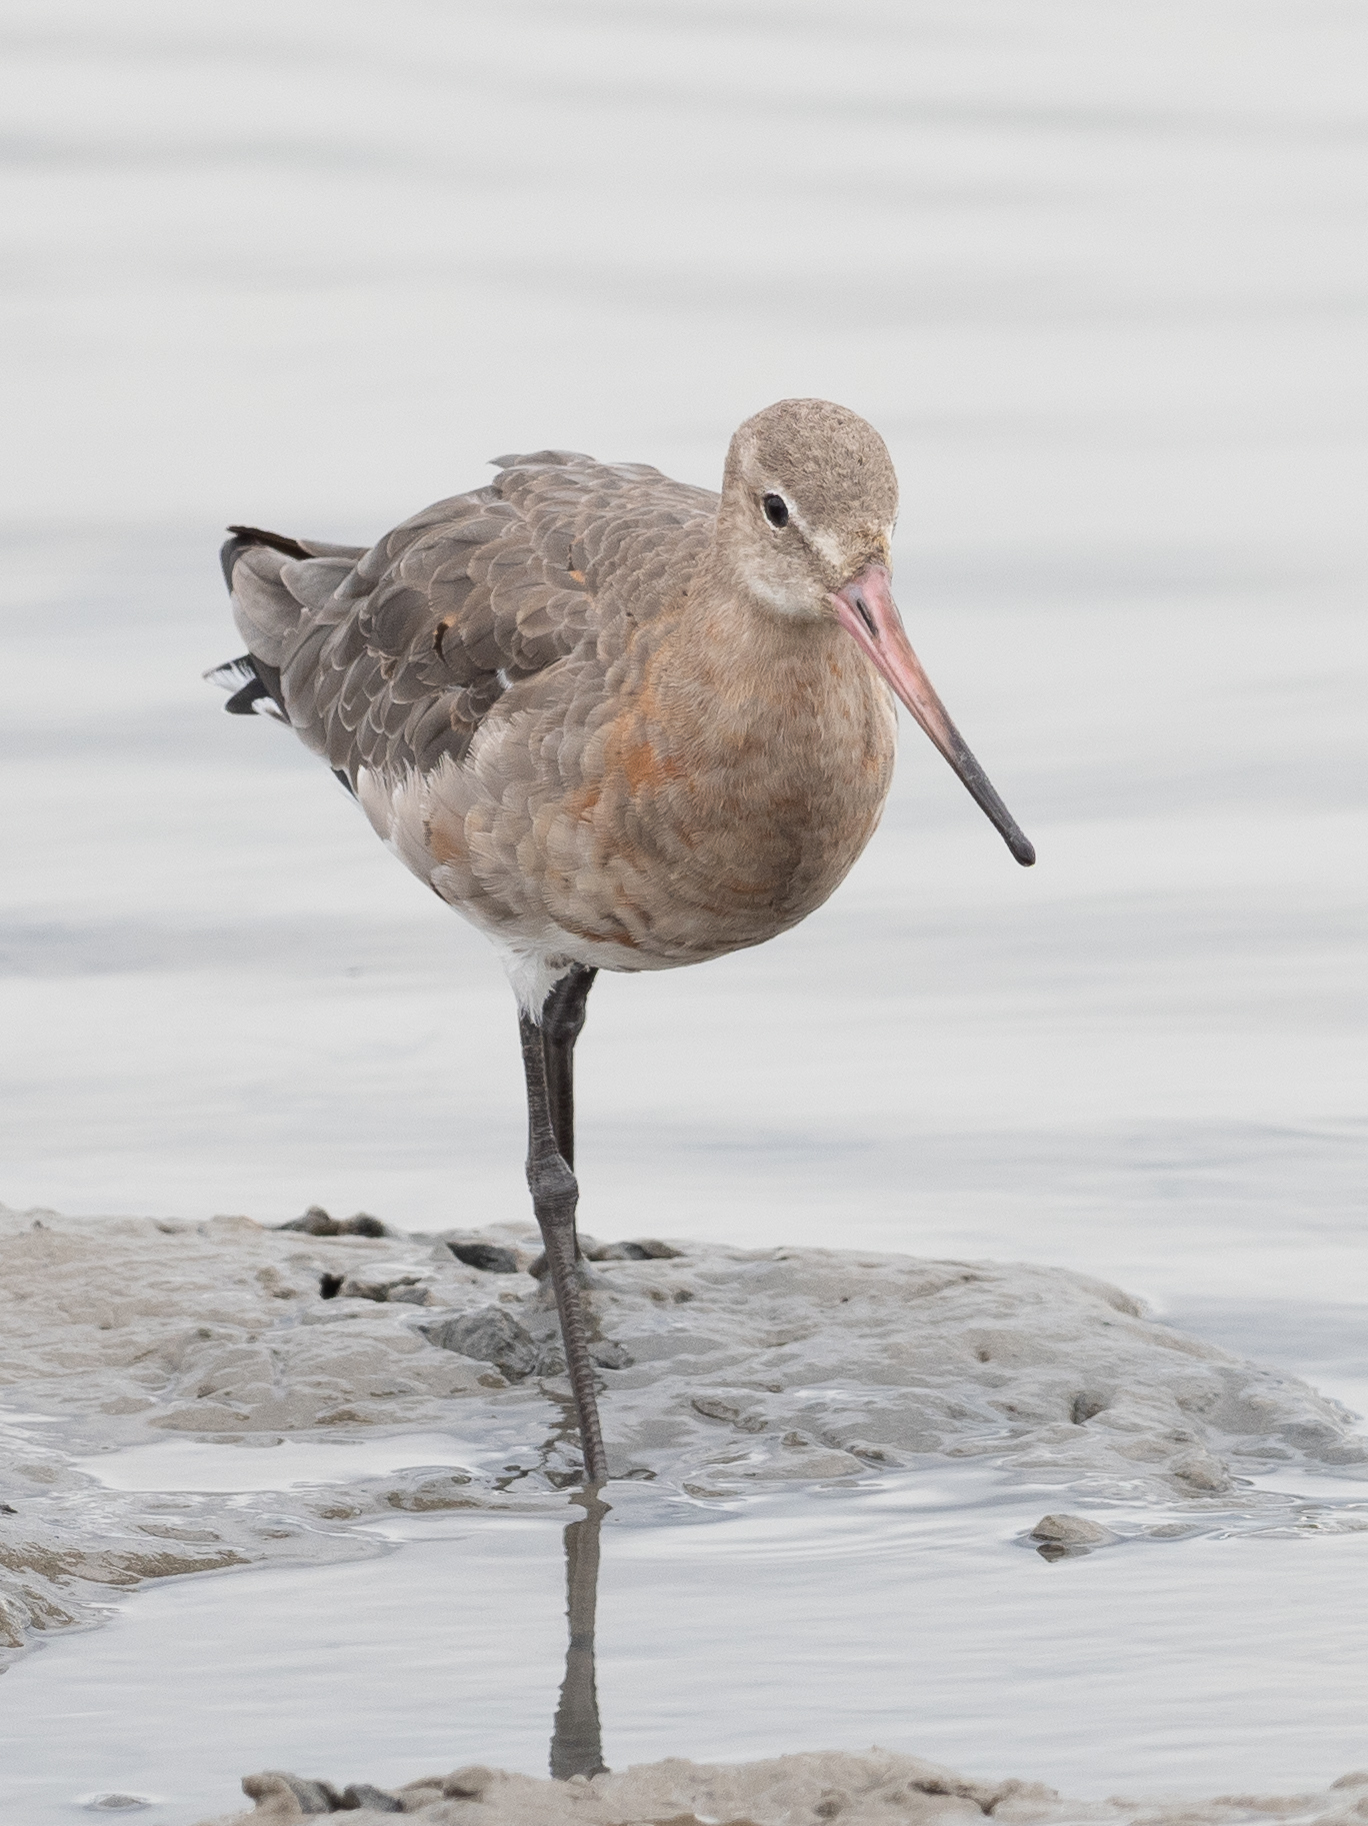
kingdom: Animalia
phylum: Chordata
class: Aves
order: Charadriiformes
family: Scolopacidae
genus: Limosa
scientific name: Limosa limosa
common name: Black-tailed godwit
